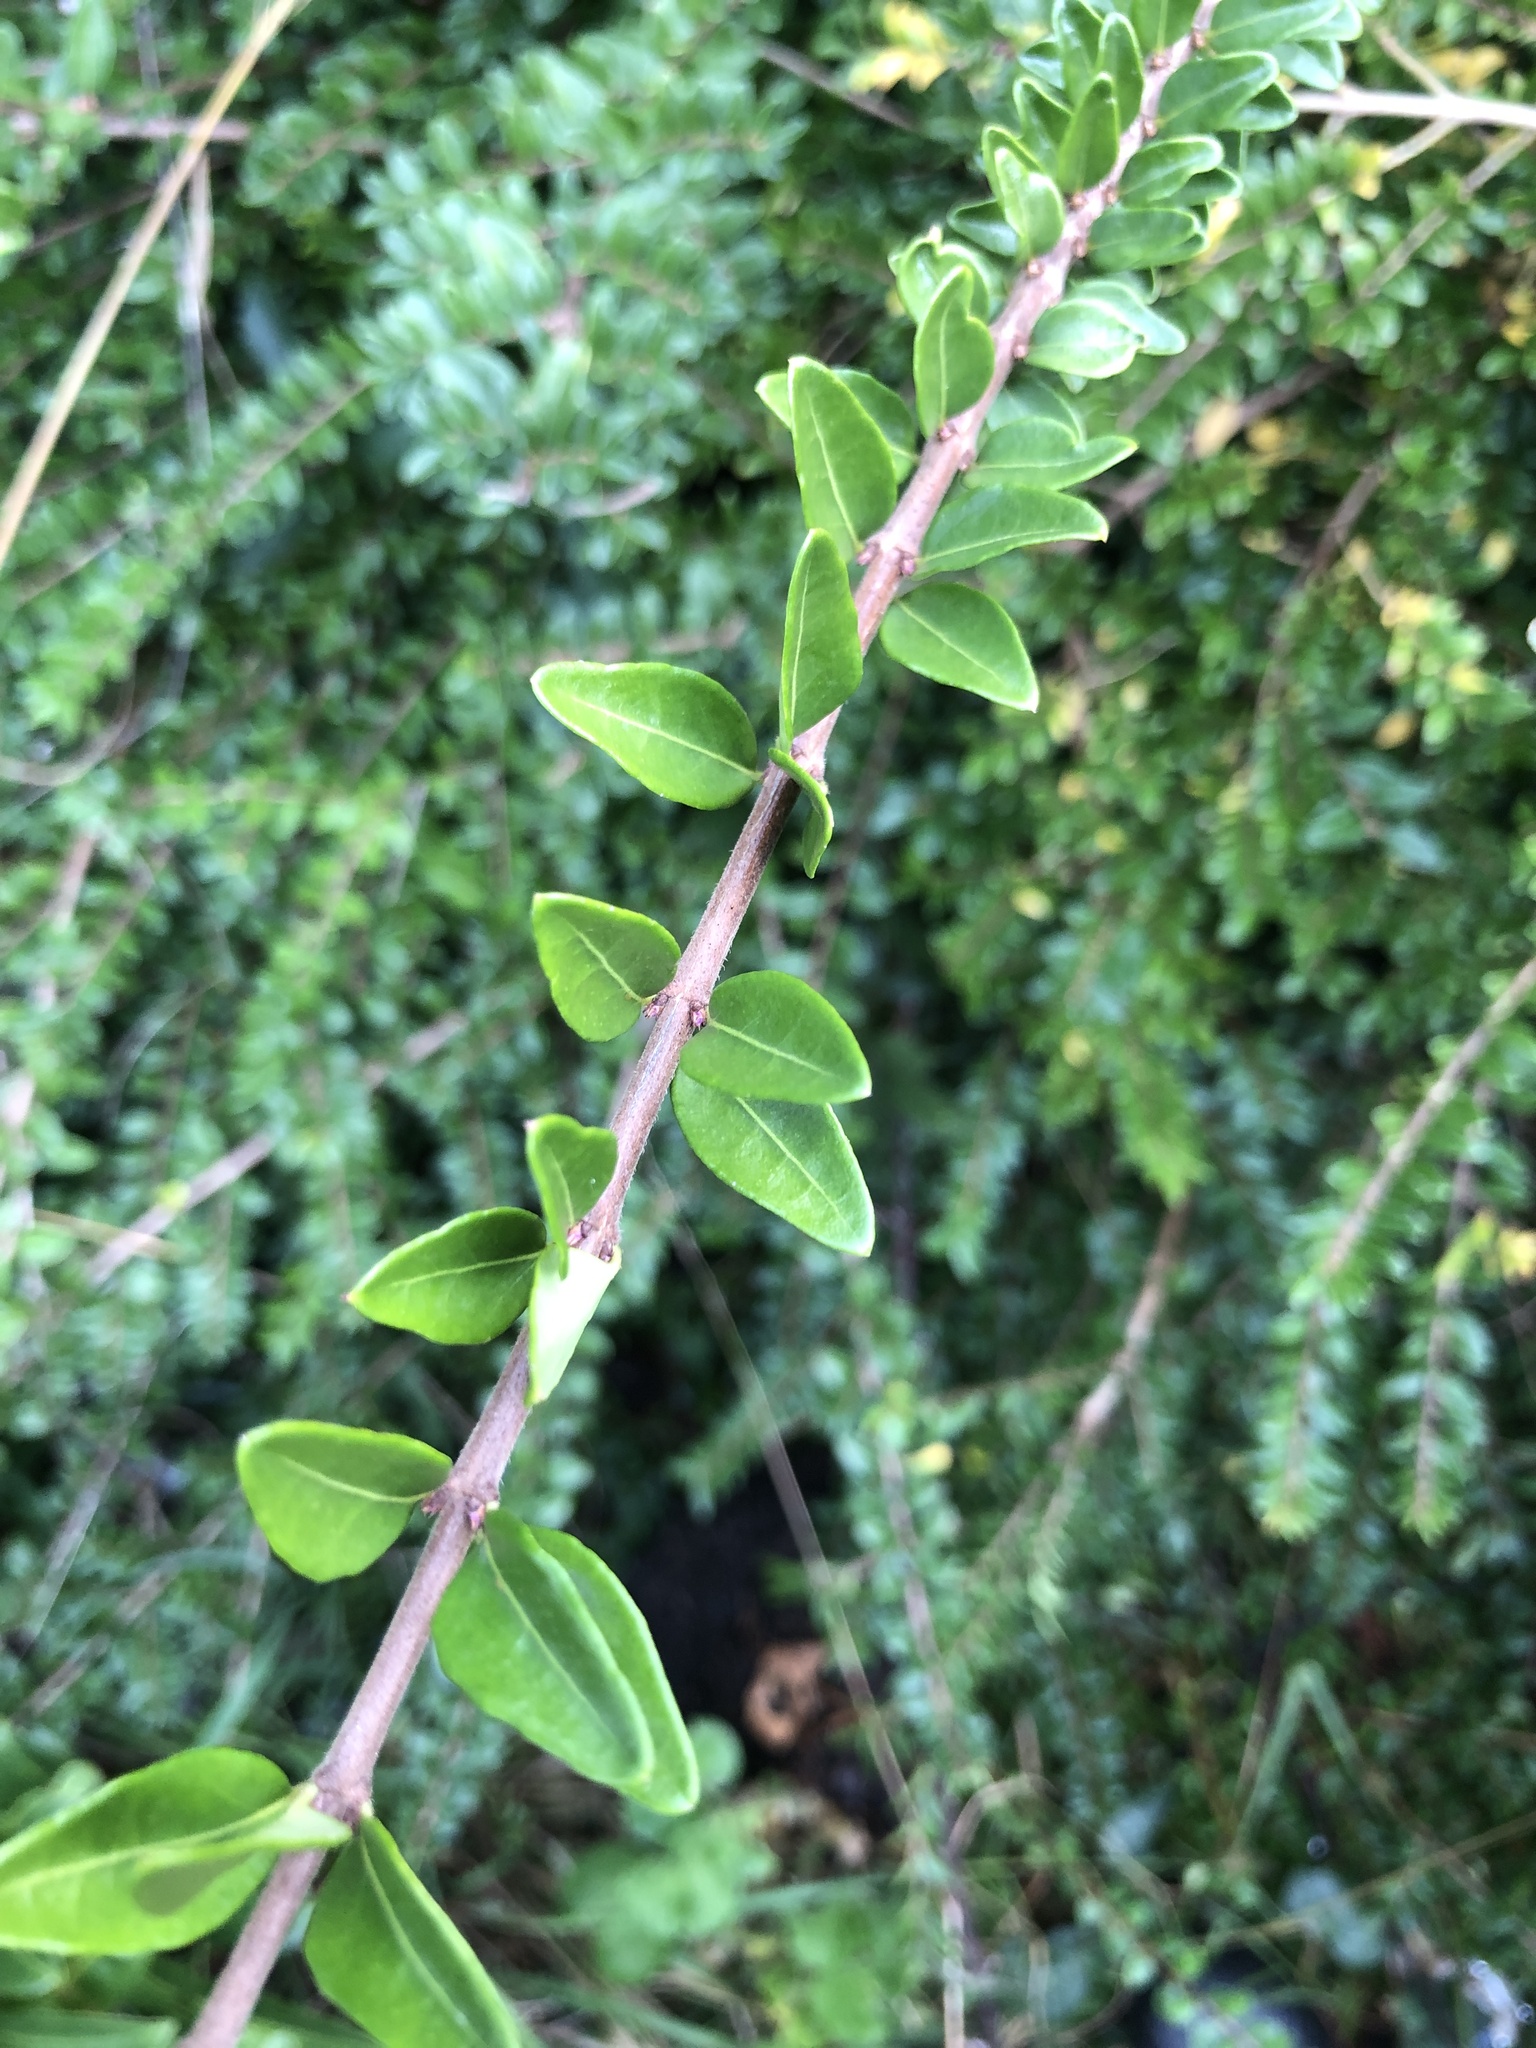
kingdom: Plantae
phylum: Tracheophyta
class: Magnoliopsida
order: Dipsacales
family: Caprifoliaceae
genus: Lonicera
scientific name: Lonicera ligustrina
